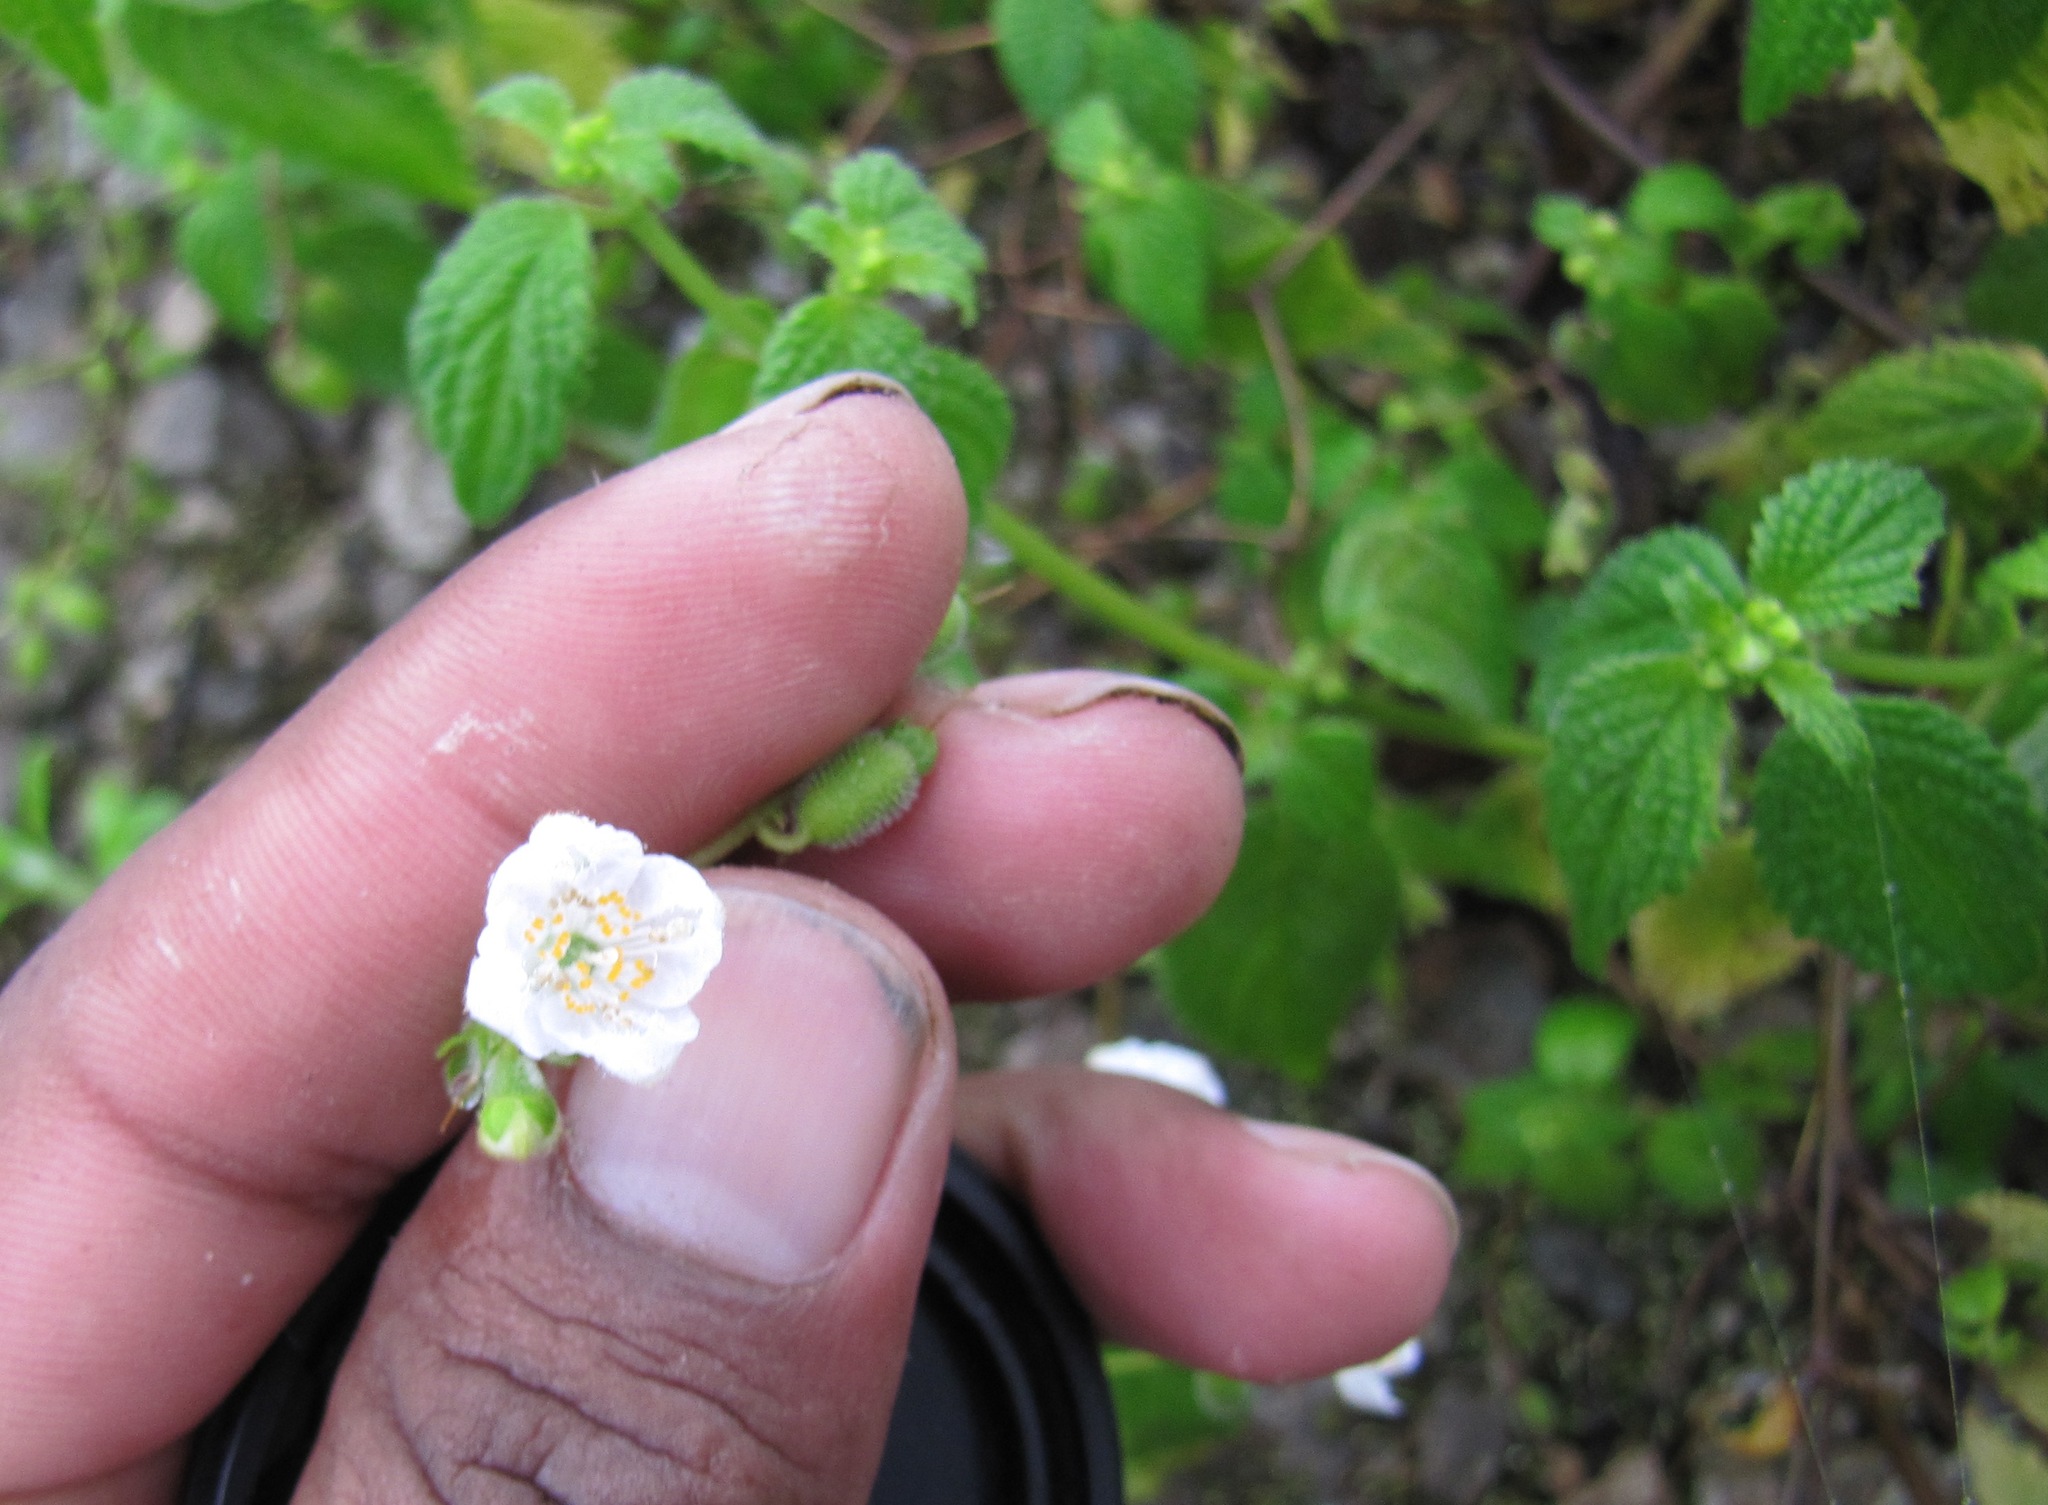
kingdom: Plantae
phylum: Tracheophyta
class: Magnoliopsida
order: Cornales
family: Loasaceae
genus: Klaprothia
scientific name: Klaprothia mentzelioides
